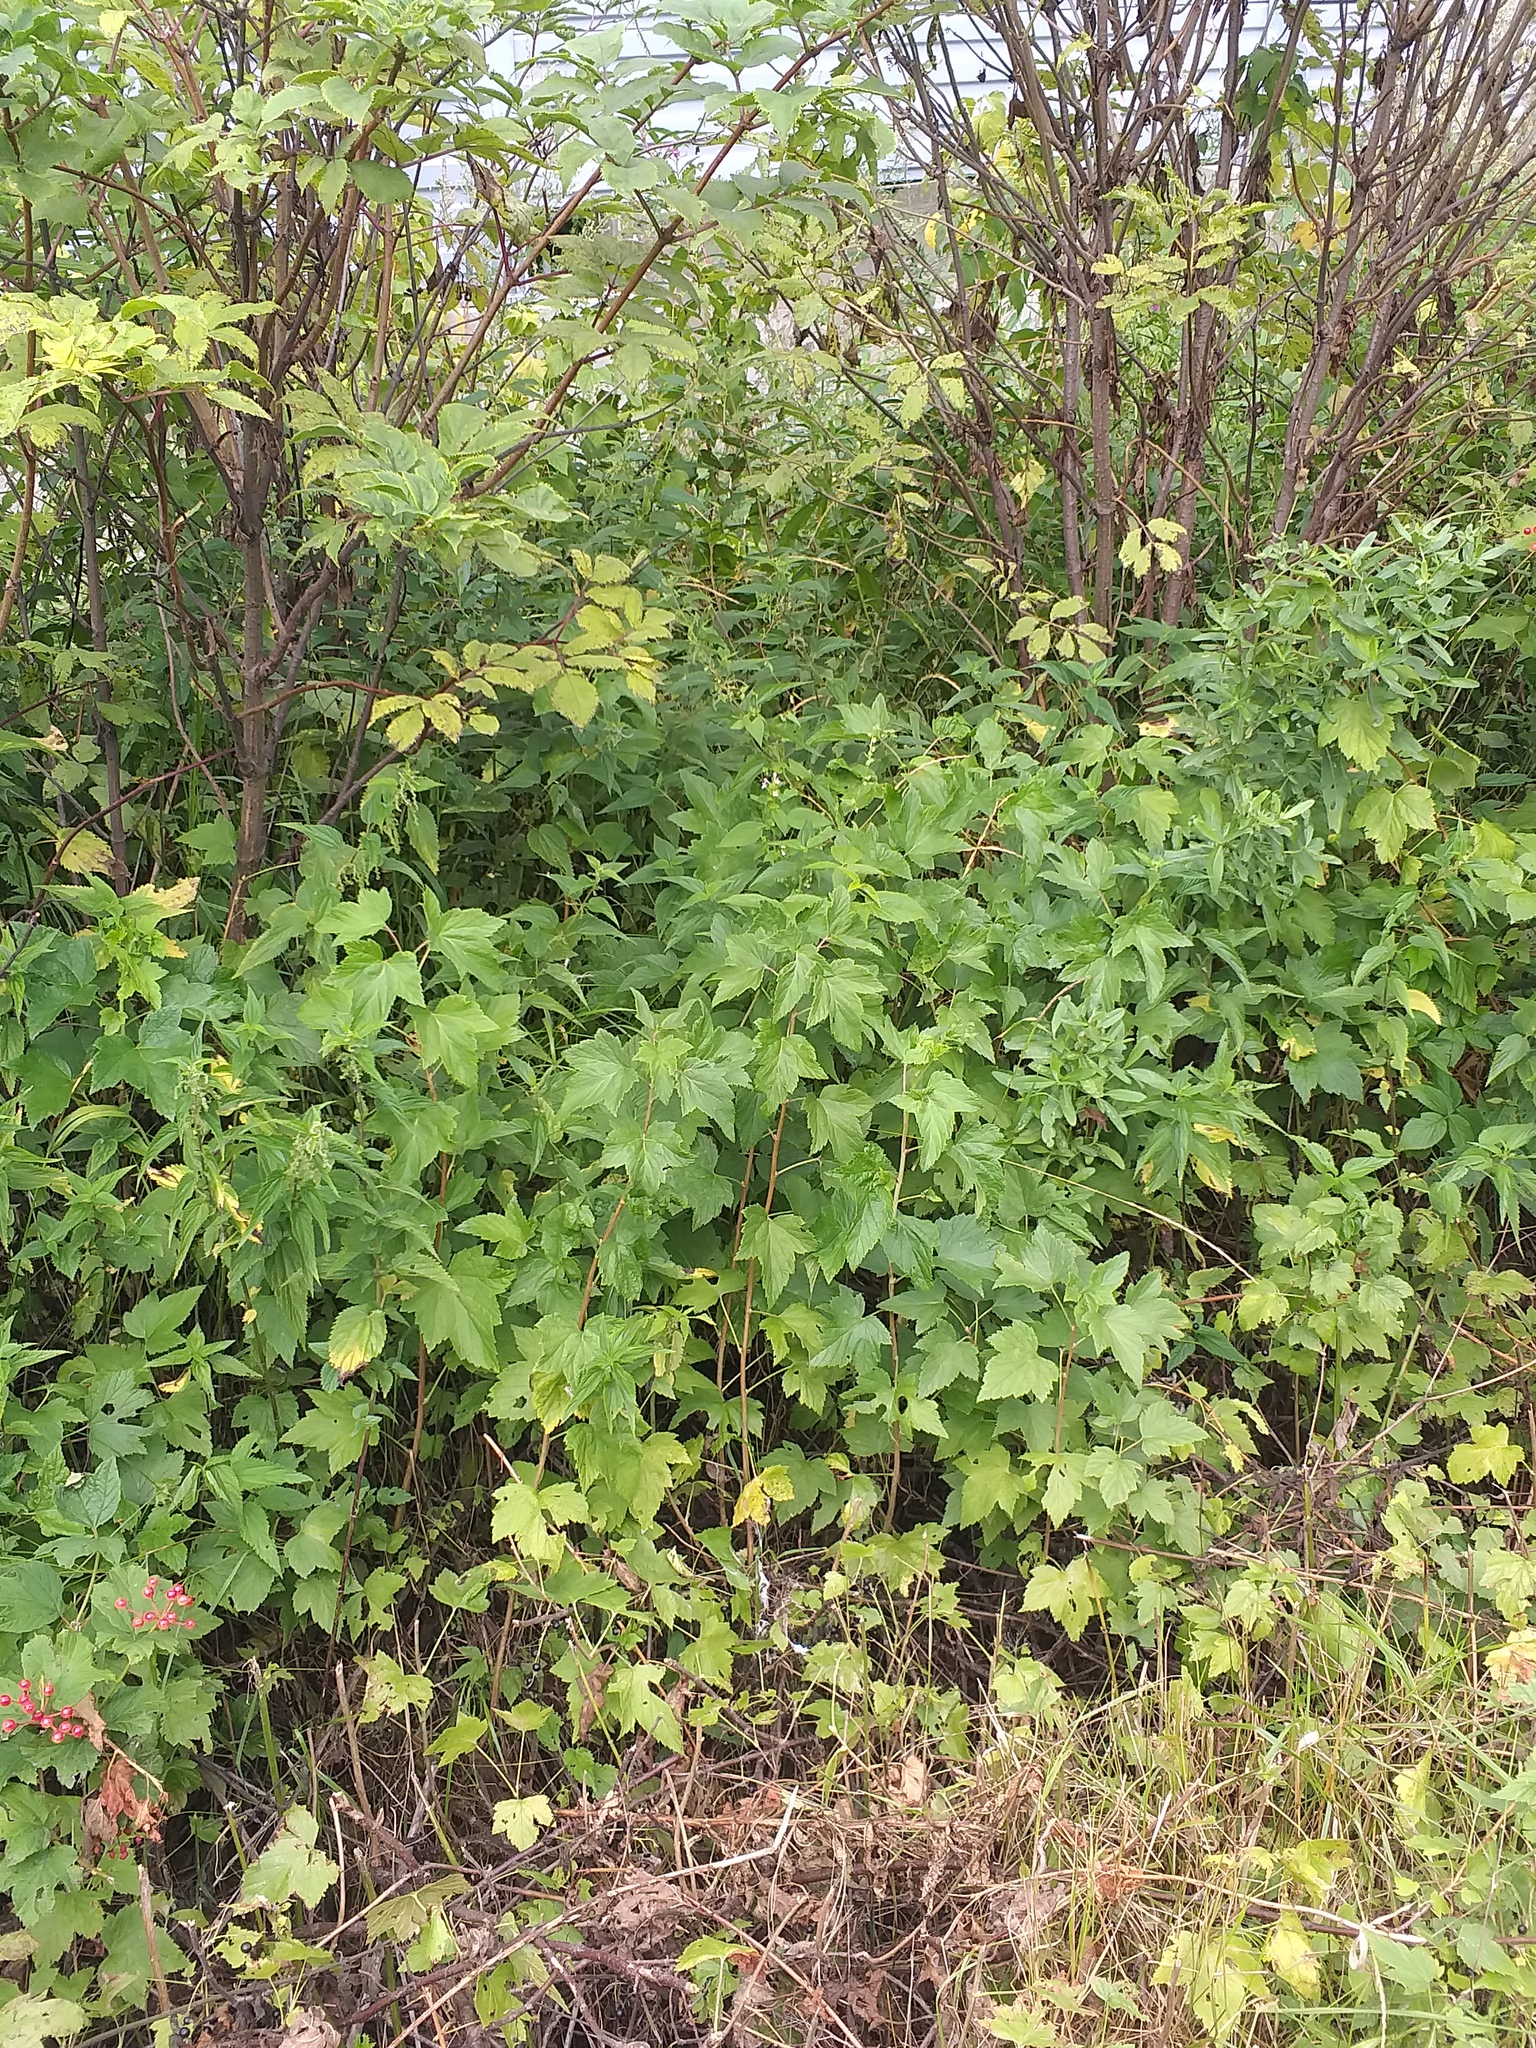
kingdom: Plantae
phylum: Tracheophyta
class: Magnoliopsida
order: Saxifragales
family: Grossulariaceae
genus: Ribes
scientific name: Ribes nigrum
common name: Black currant
